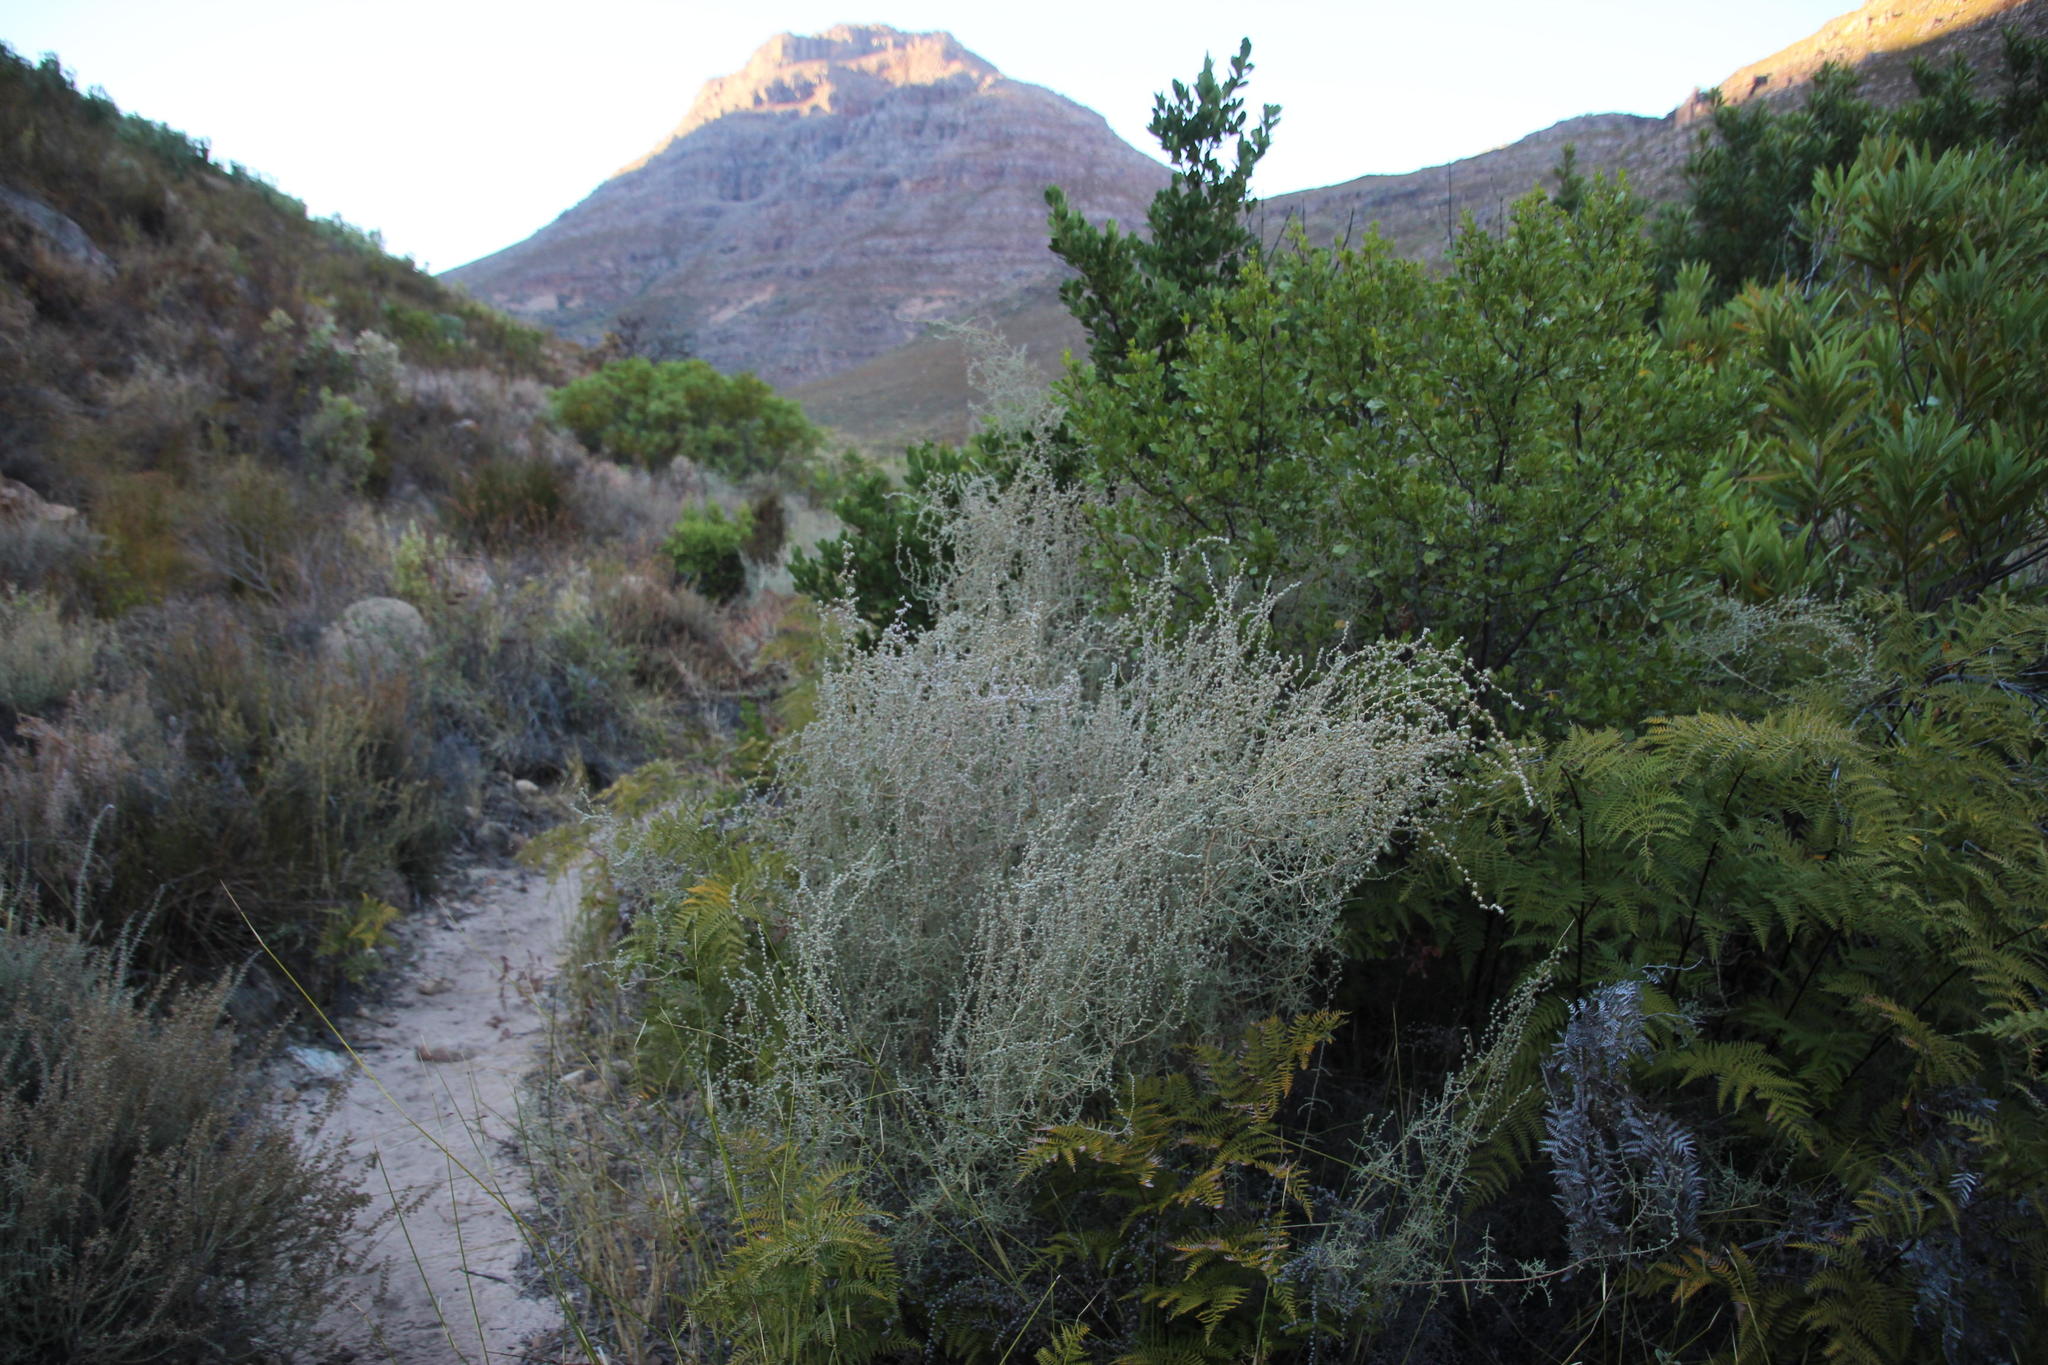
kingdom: Plantae
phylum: Tracheophyta
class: Magnoliopsida
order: Asterales
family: Asteraceae
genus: Seriphium
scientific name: Seriphium plumosum
